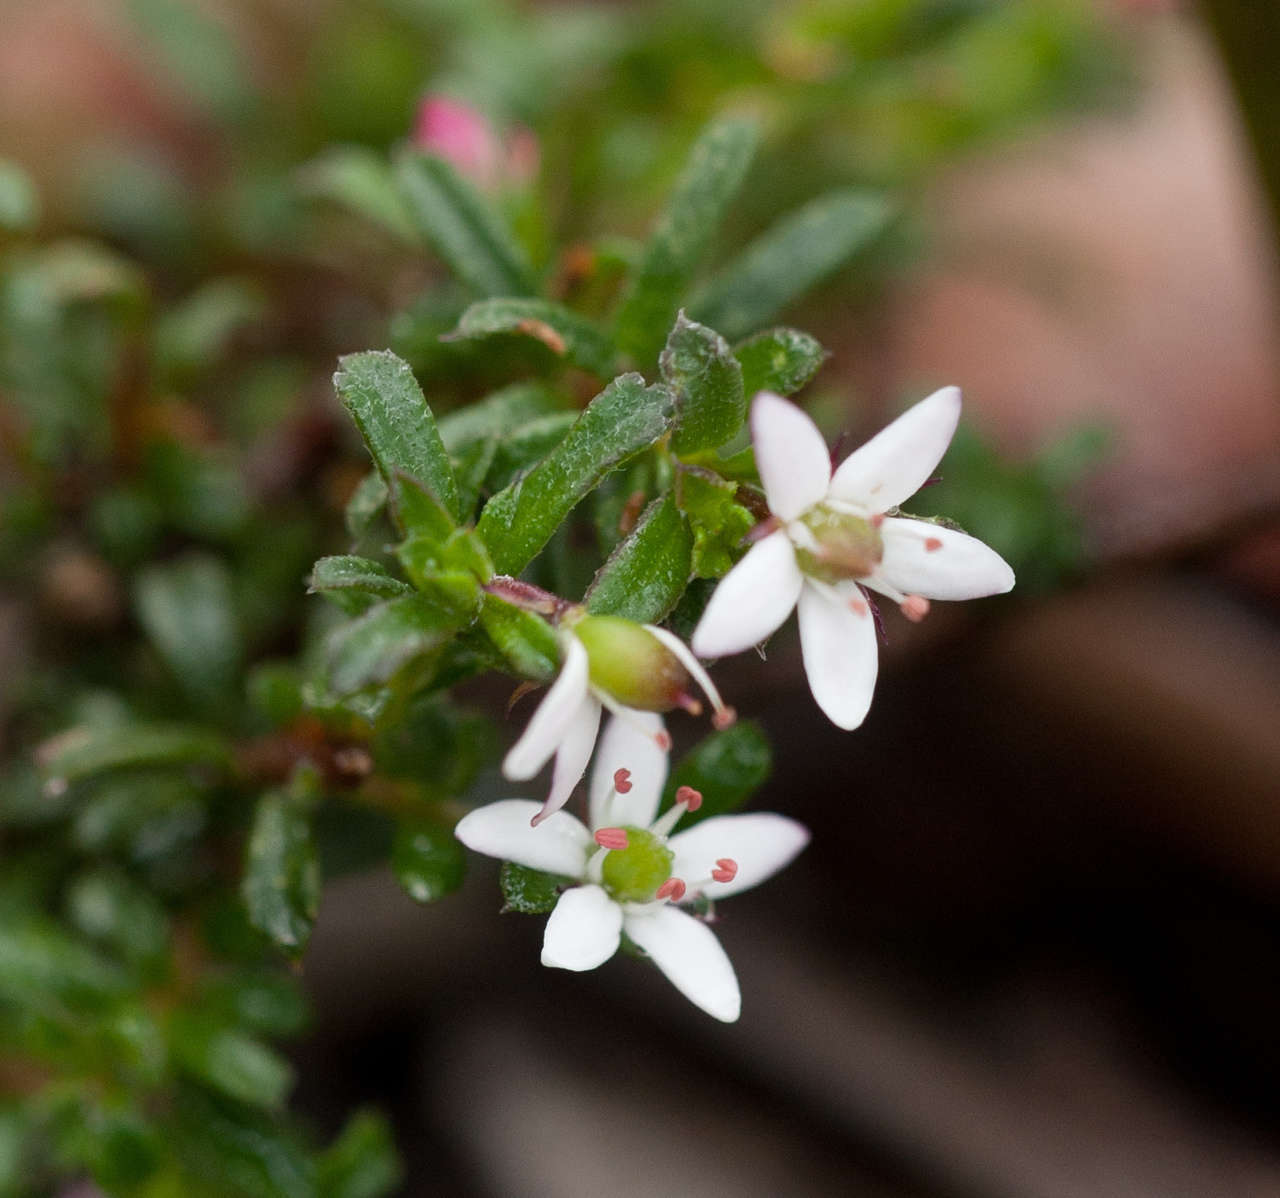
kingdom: Plantae
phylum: Tracheophyta
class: Magnoliopsida
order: Apiales
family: Pittosporaceae
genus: Rhytidosporum
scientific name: Rhytidosporum procumbens
